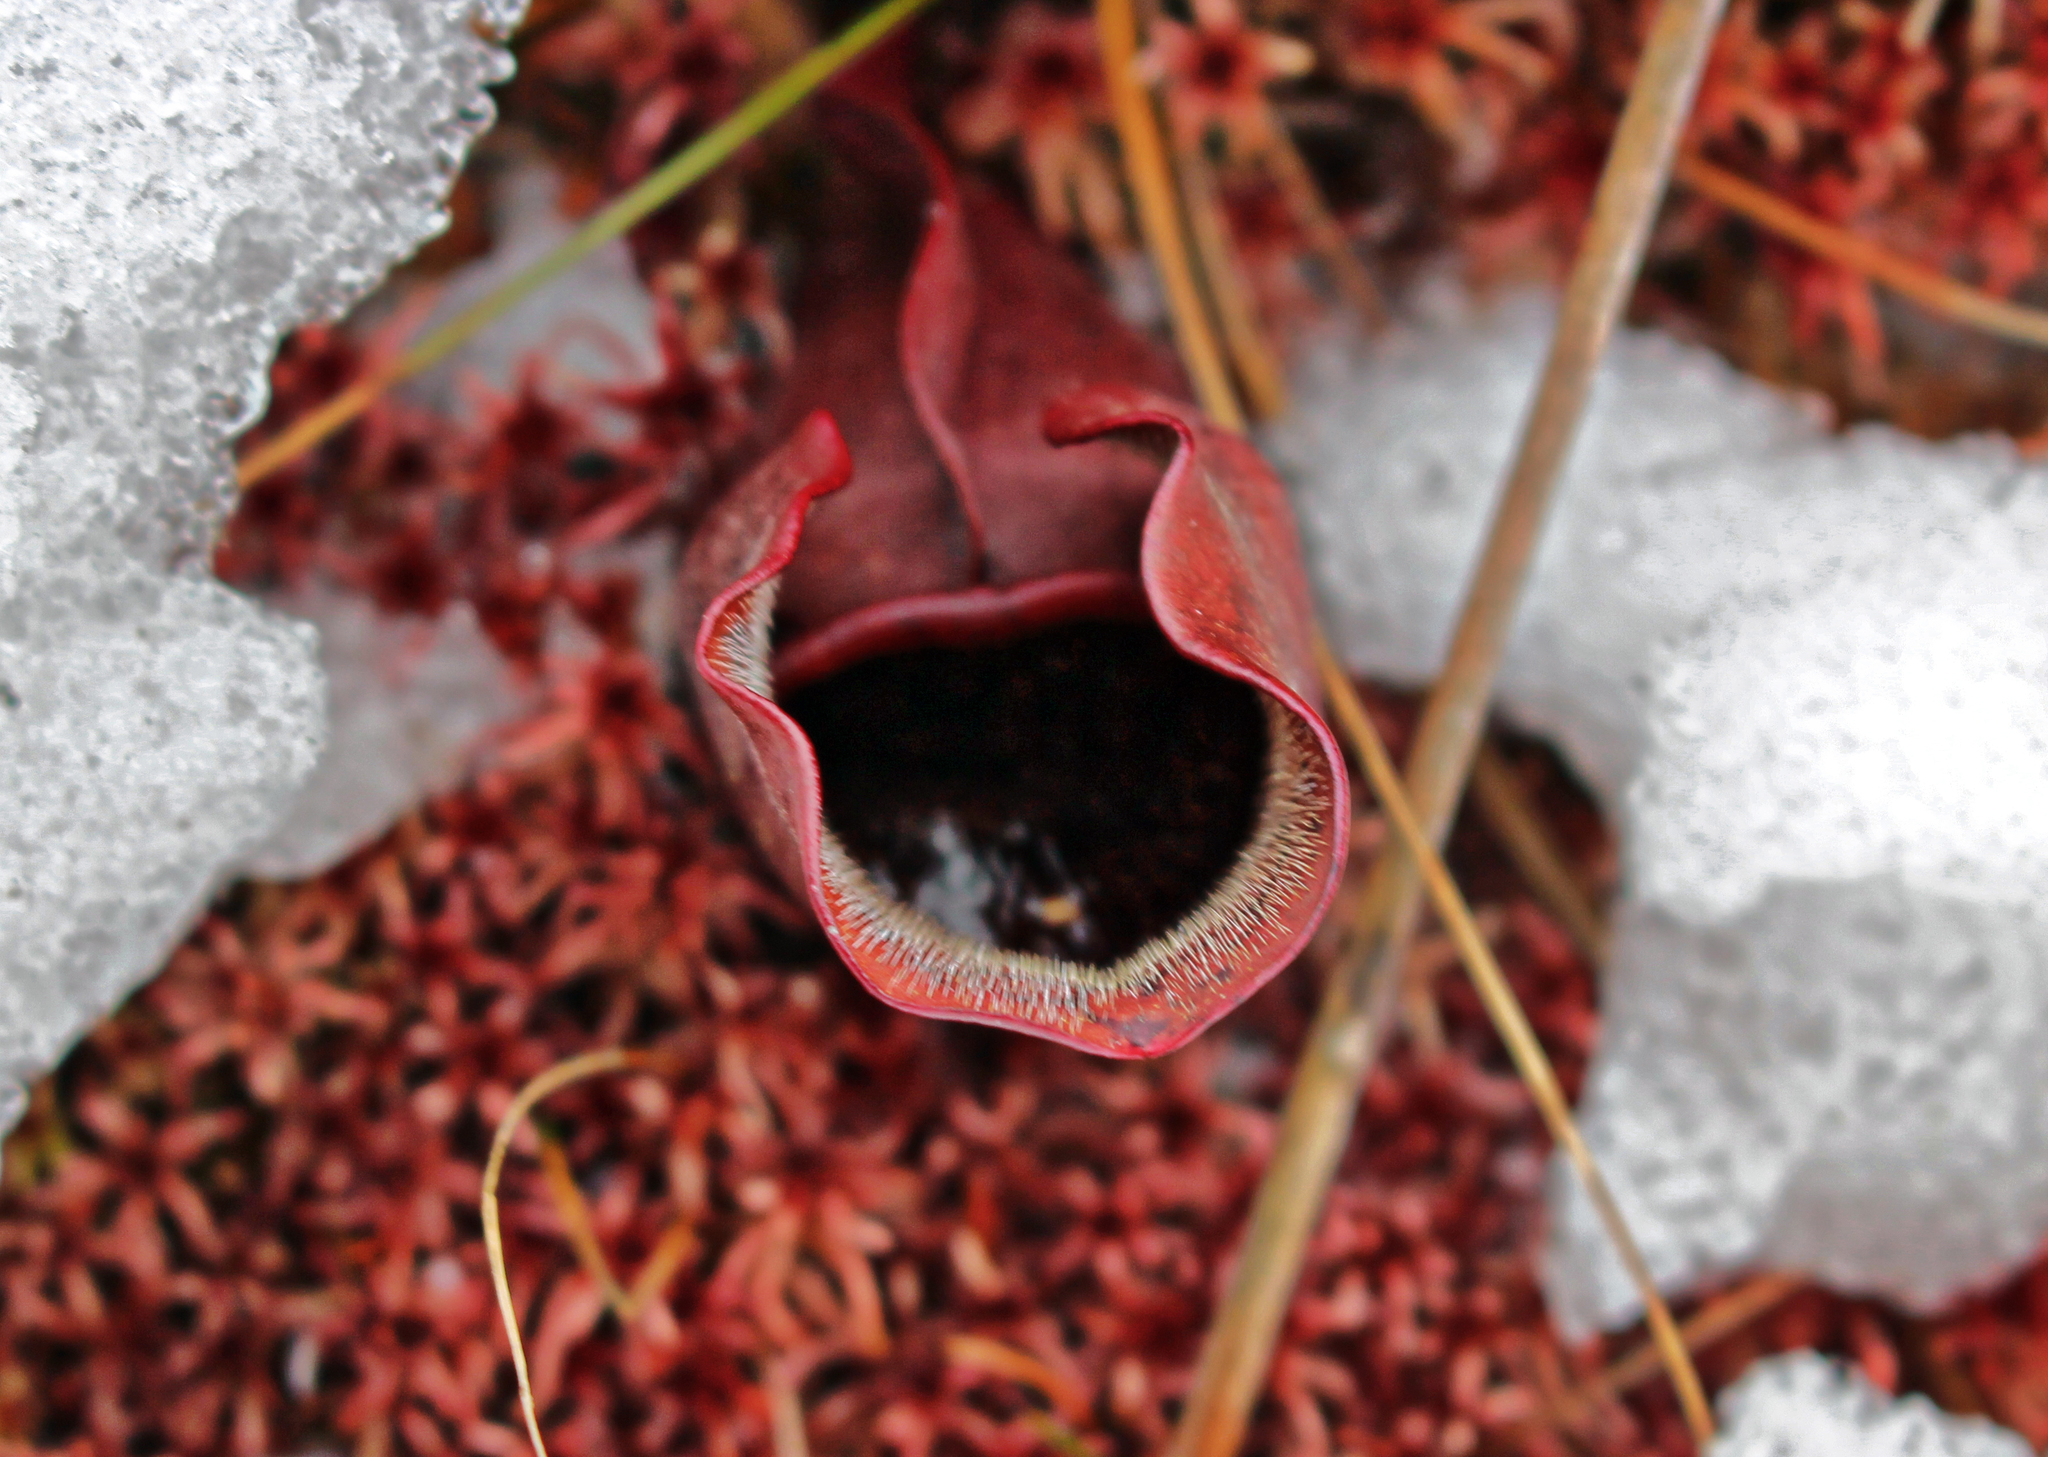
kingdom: Plantae
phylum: Tracheophyta
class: Magnoliopsida
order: Ericales
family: Sarraceniaceae
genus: Sarracenia
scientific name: Sarracenia purpurea
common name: Pitcherplant
